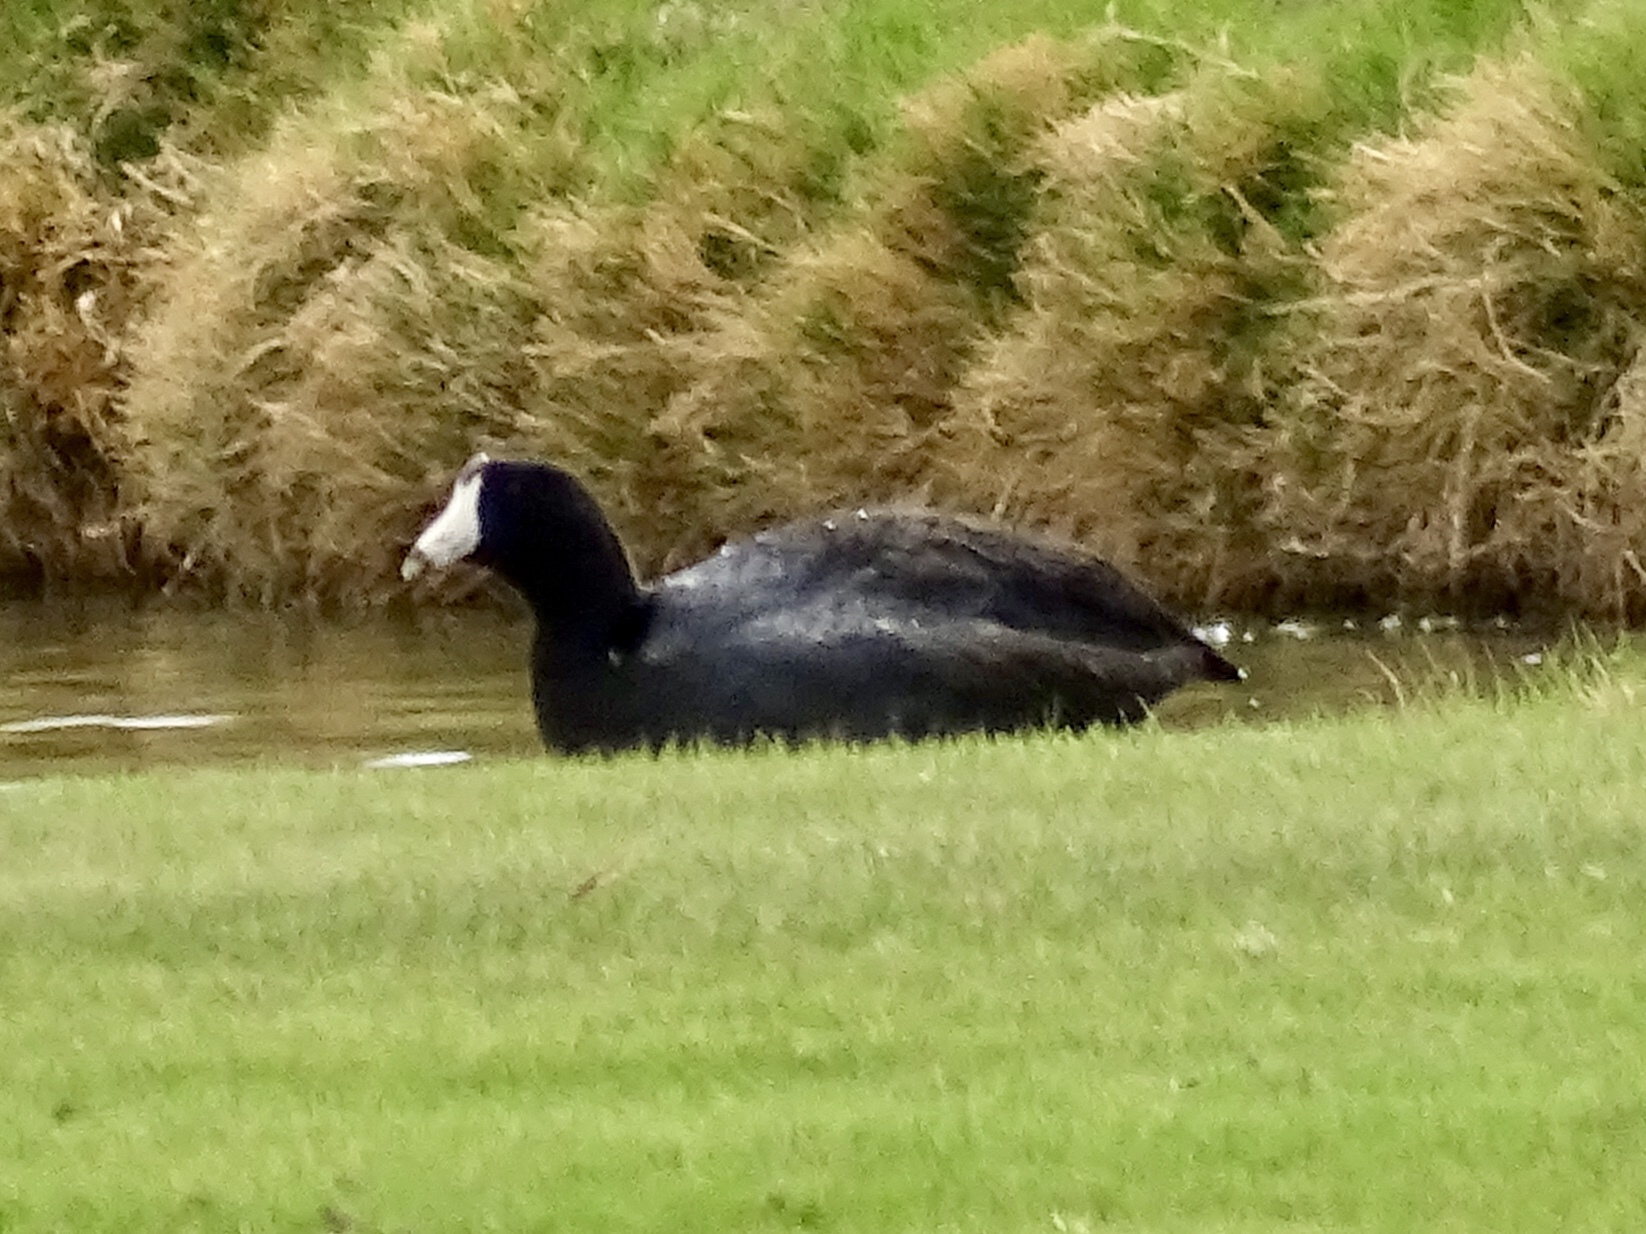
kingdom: Animalia
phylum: Chordata
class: Aves
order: Gruiformes
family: Rallidae
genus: Fulica
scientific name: Fulica americana
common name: American coot
